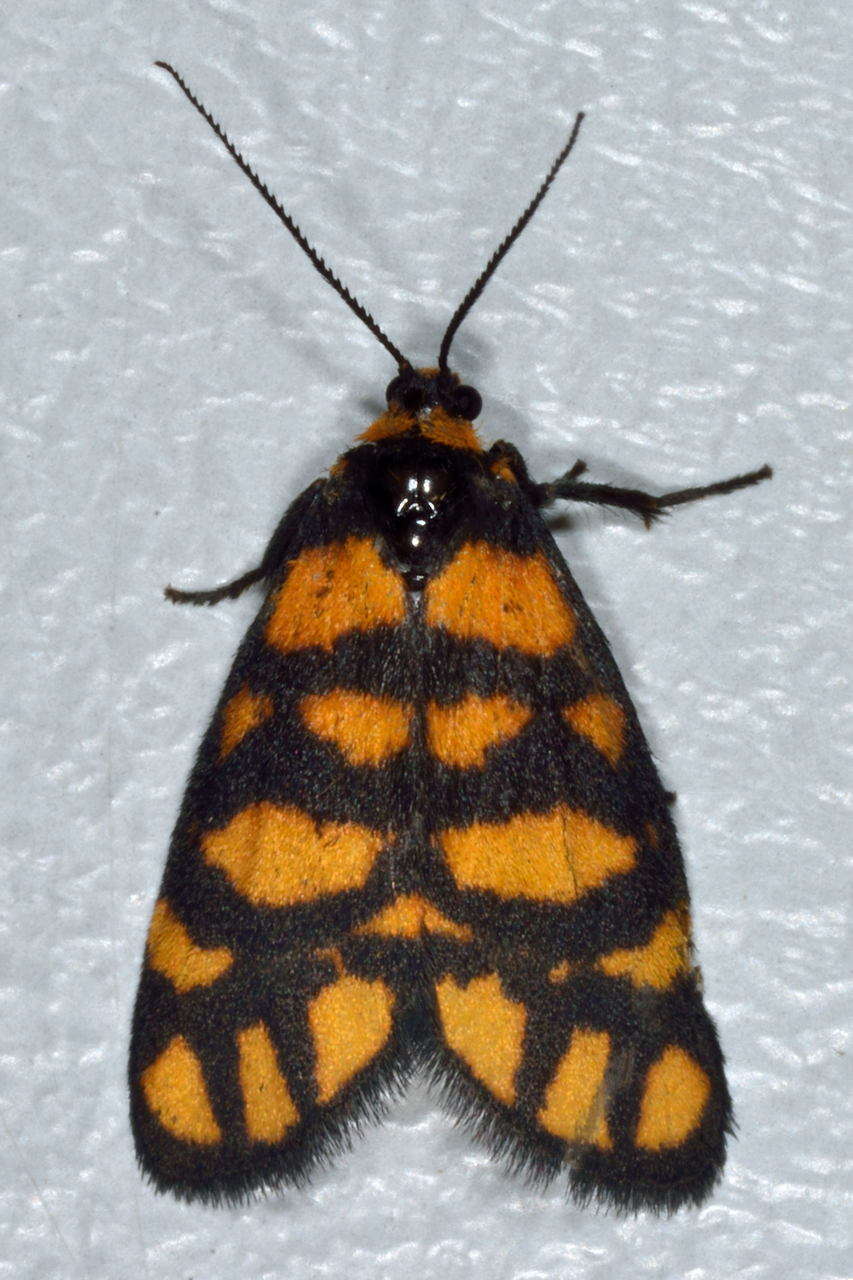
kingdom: Animalia
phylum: Arthropoda
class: Insecta
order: Lepidoptera
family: Erebidae
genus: Asura
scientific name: Asura lydia
